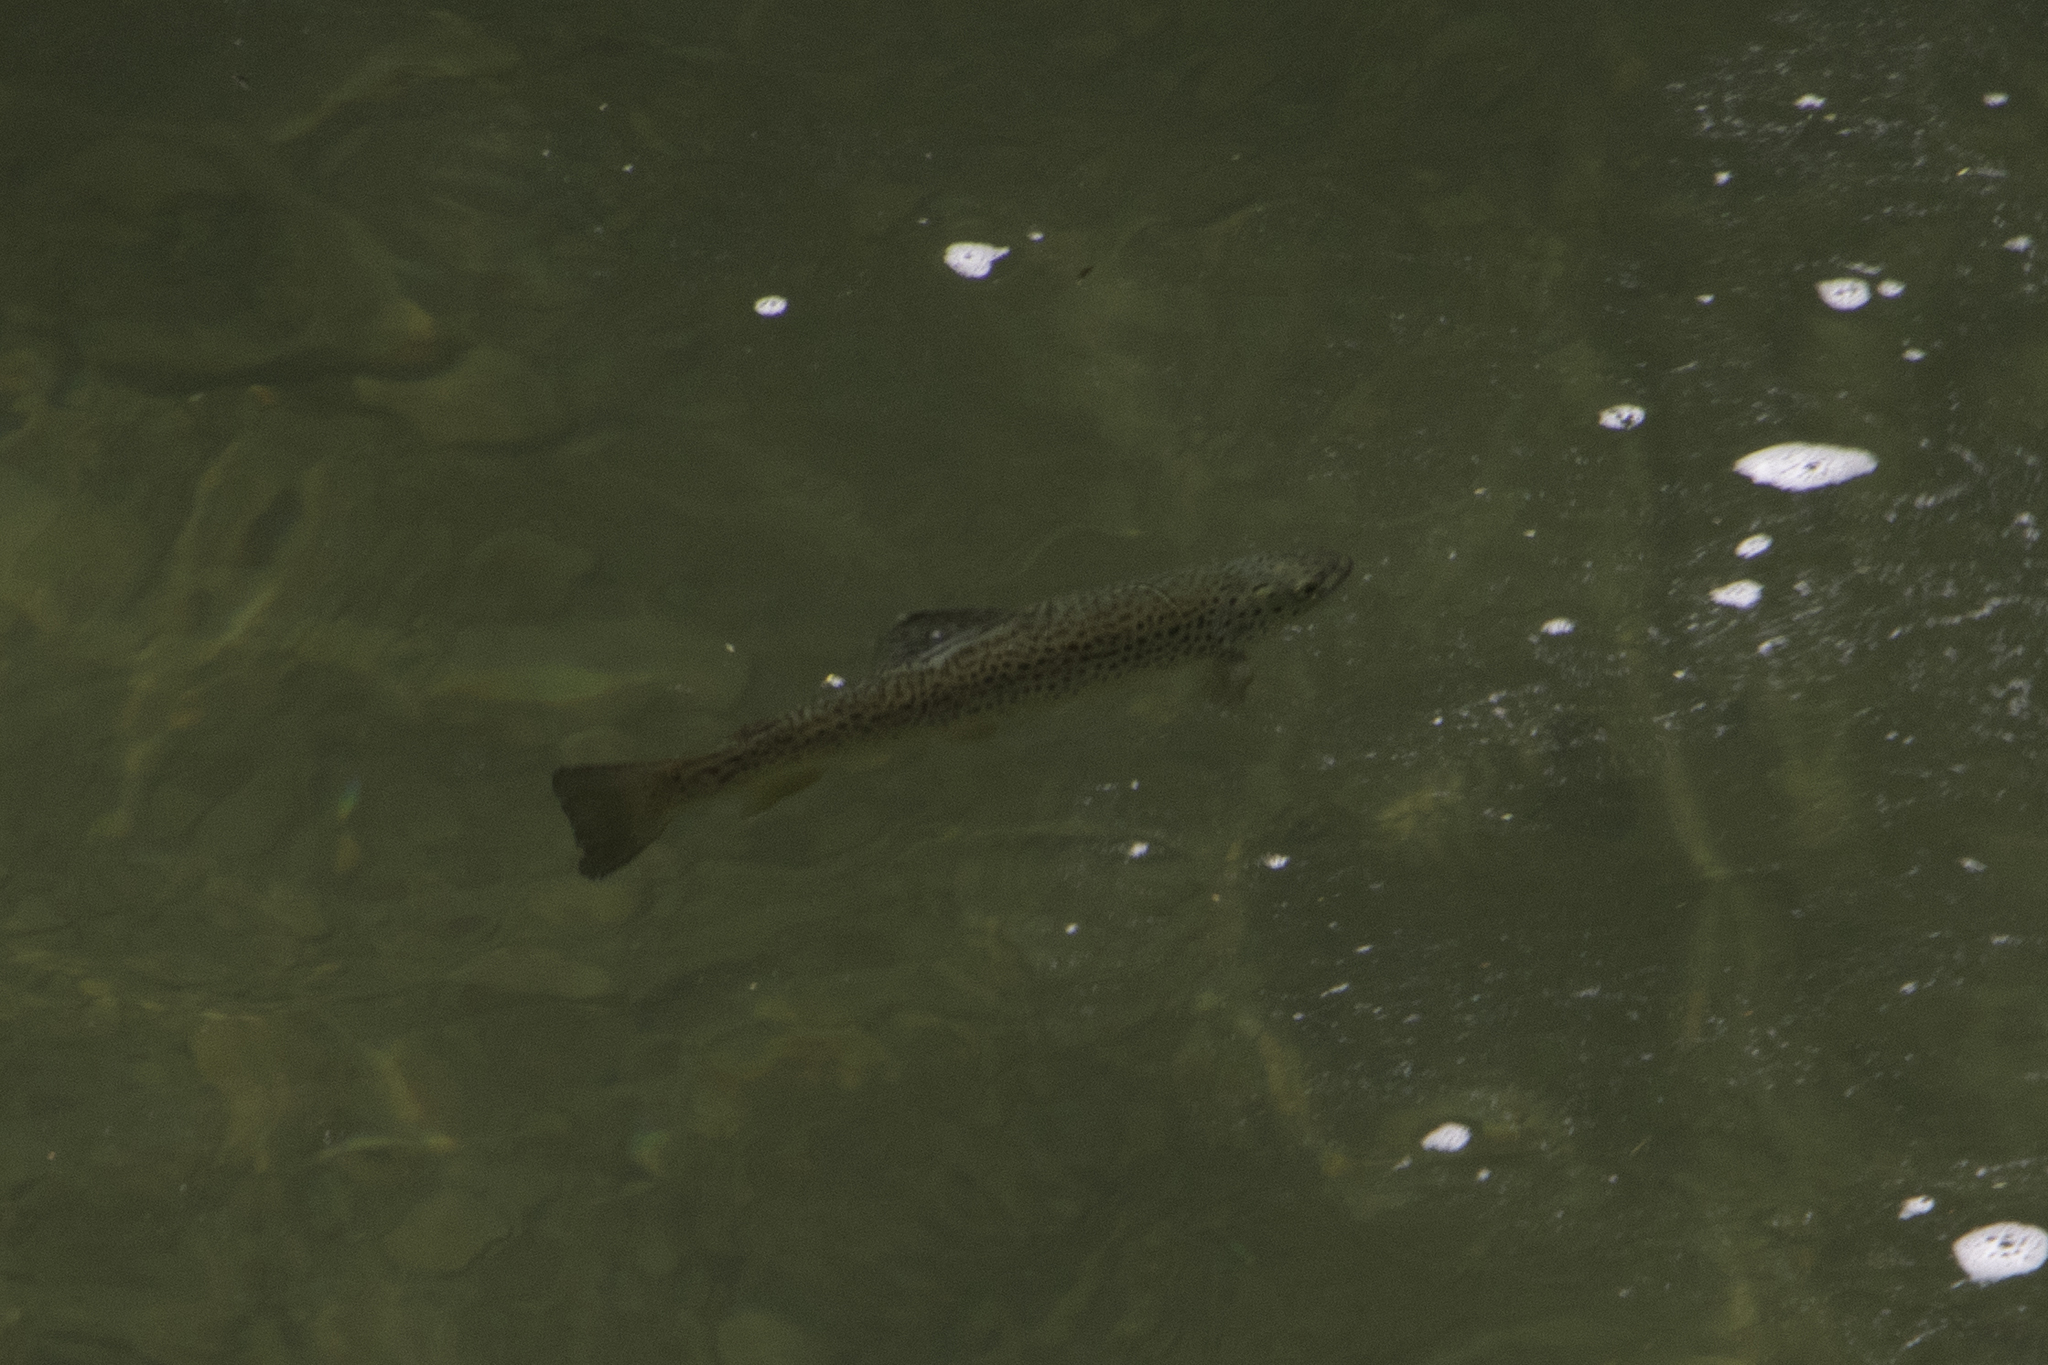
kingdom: Animalia
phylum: Chordata
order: Salmoniformes
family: Salmonidae
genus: Salmo
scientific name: Salmo trutta
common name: Brown trout
